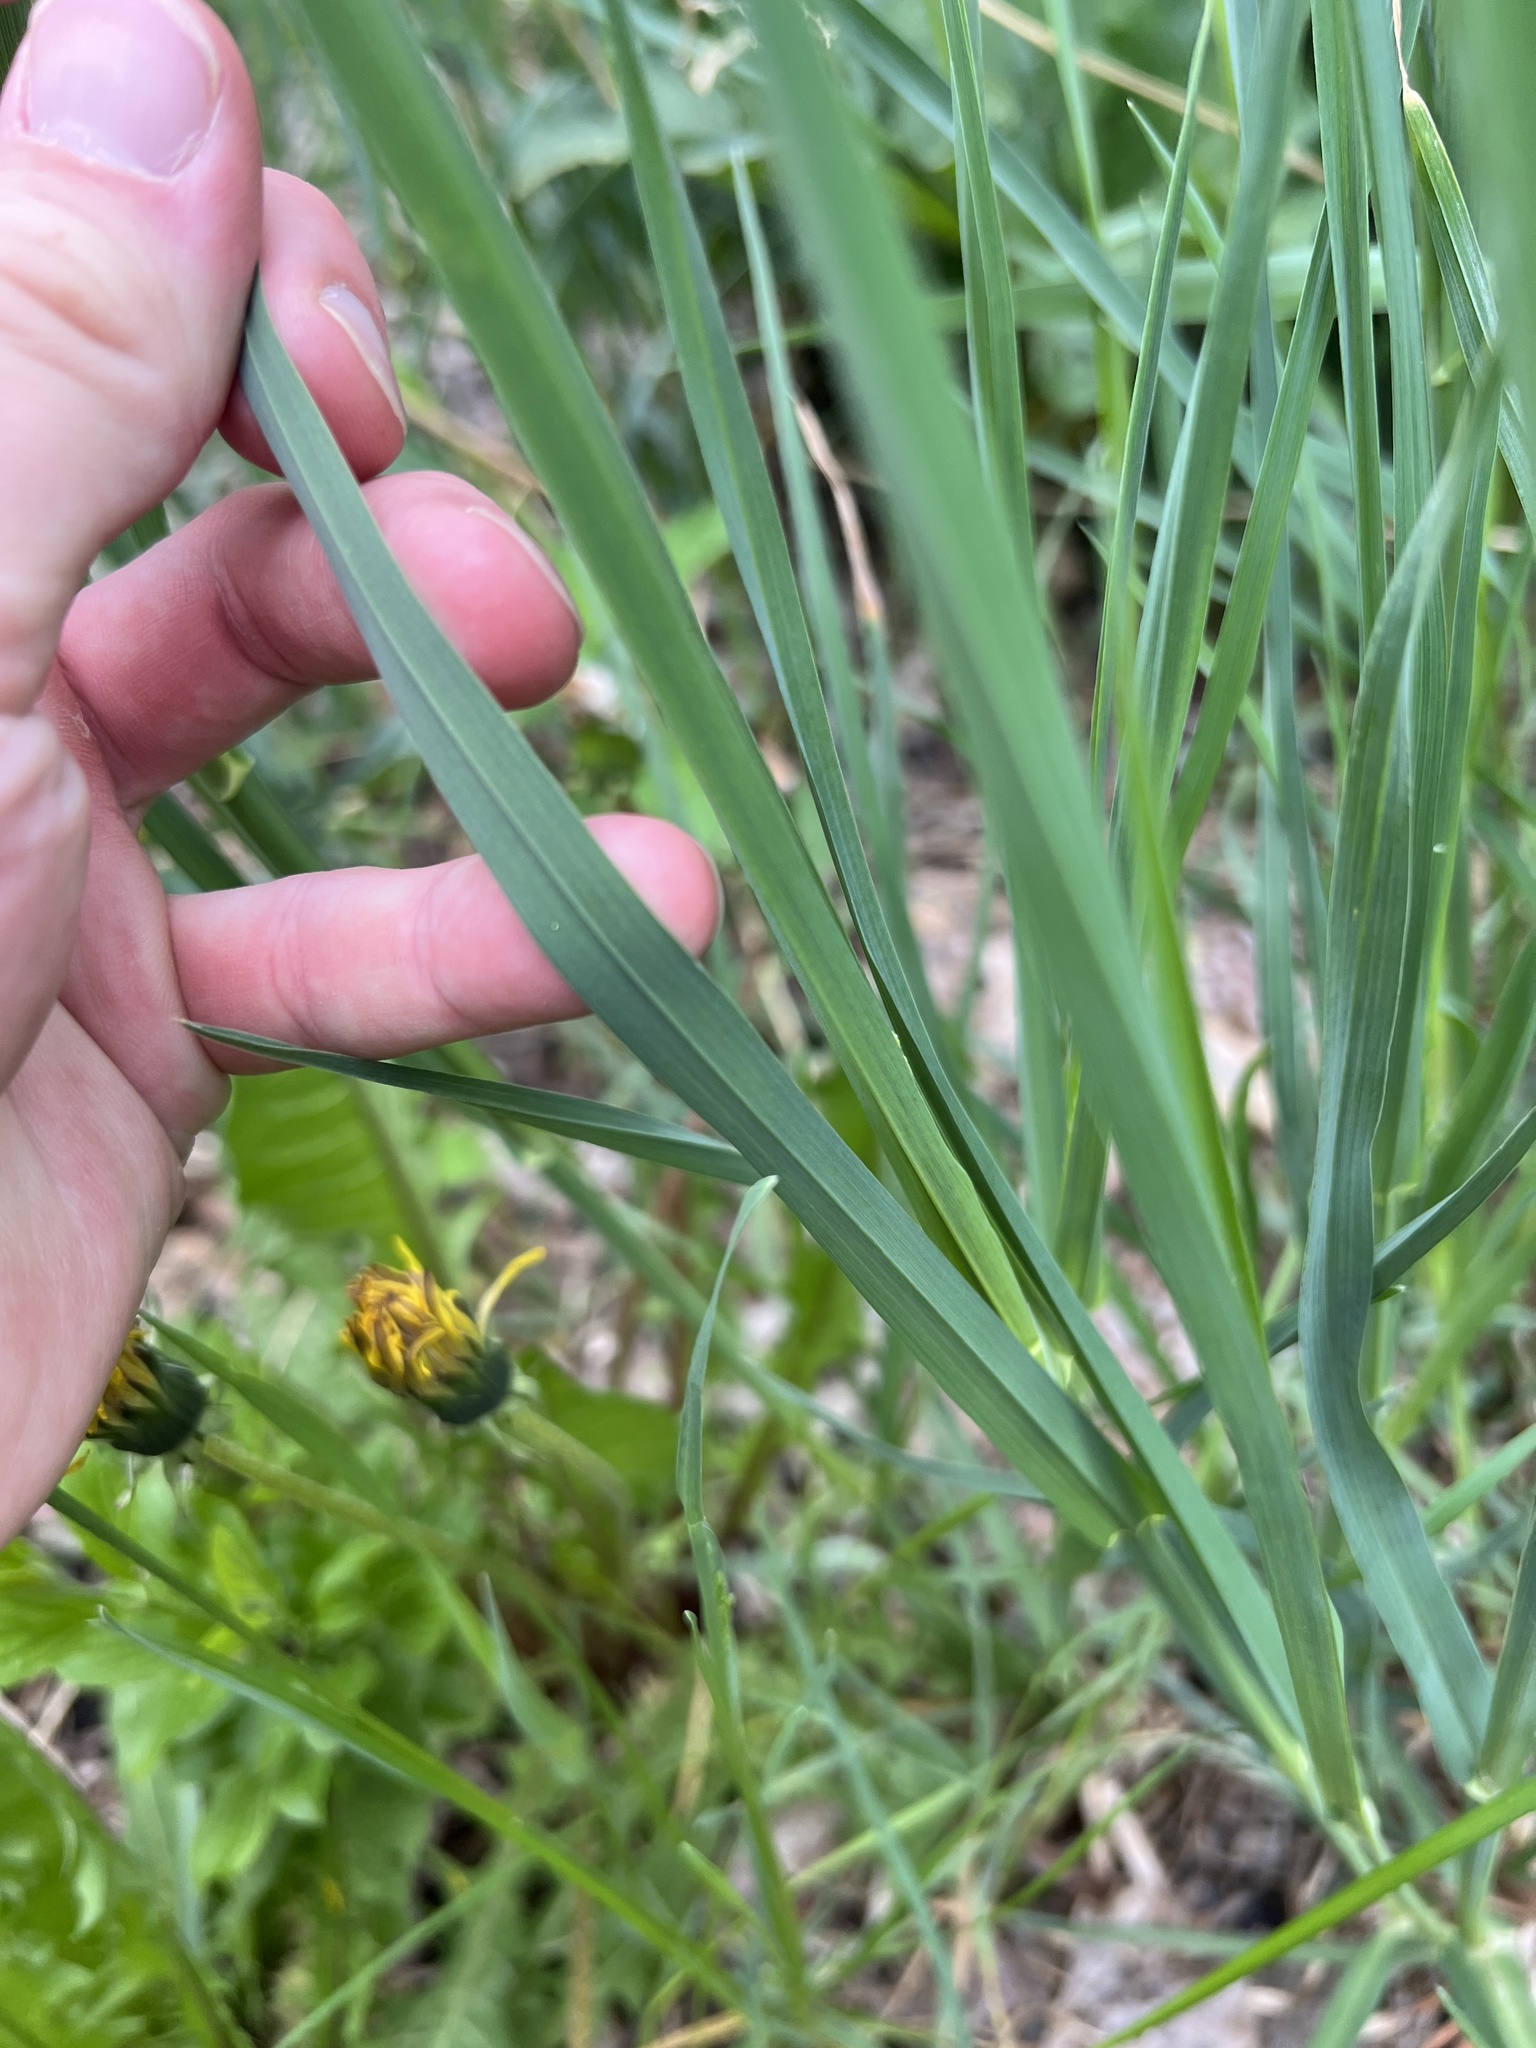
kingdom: Plantae
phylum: Tracheophyta
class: Liliopsida
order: Poales
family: Poaceae
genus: Dactylis
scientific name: Dactylis glomerata
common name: Orchardgrass
